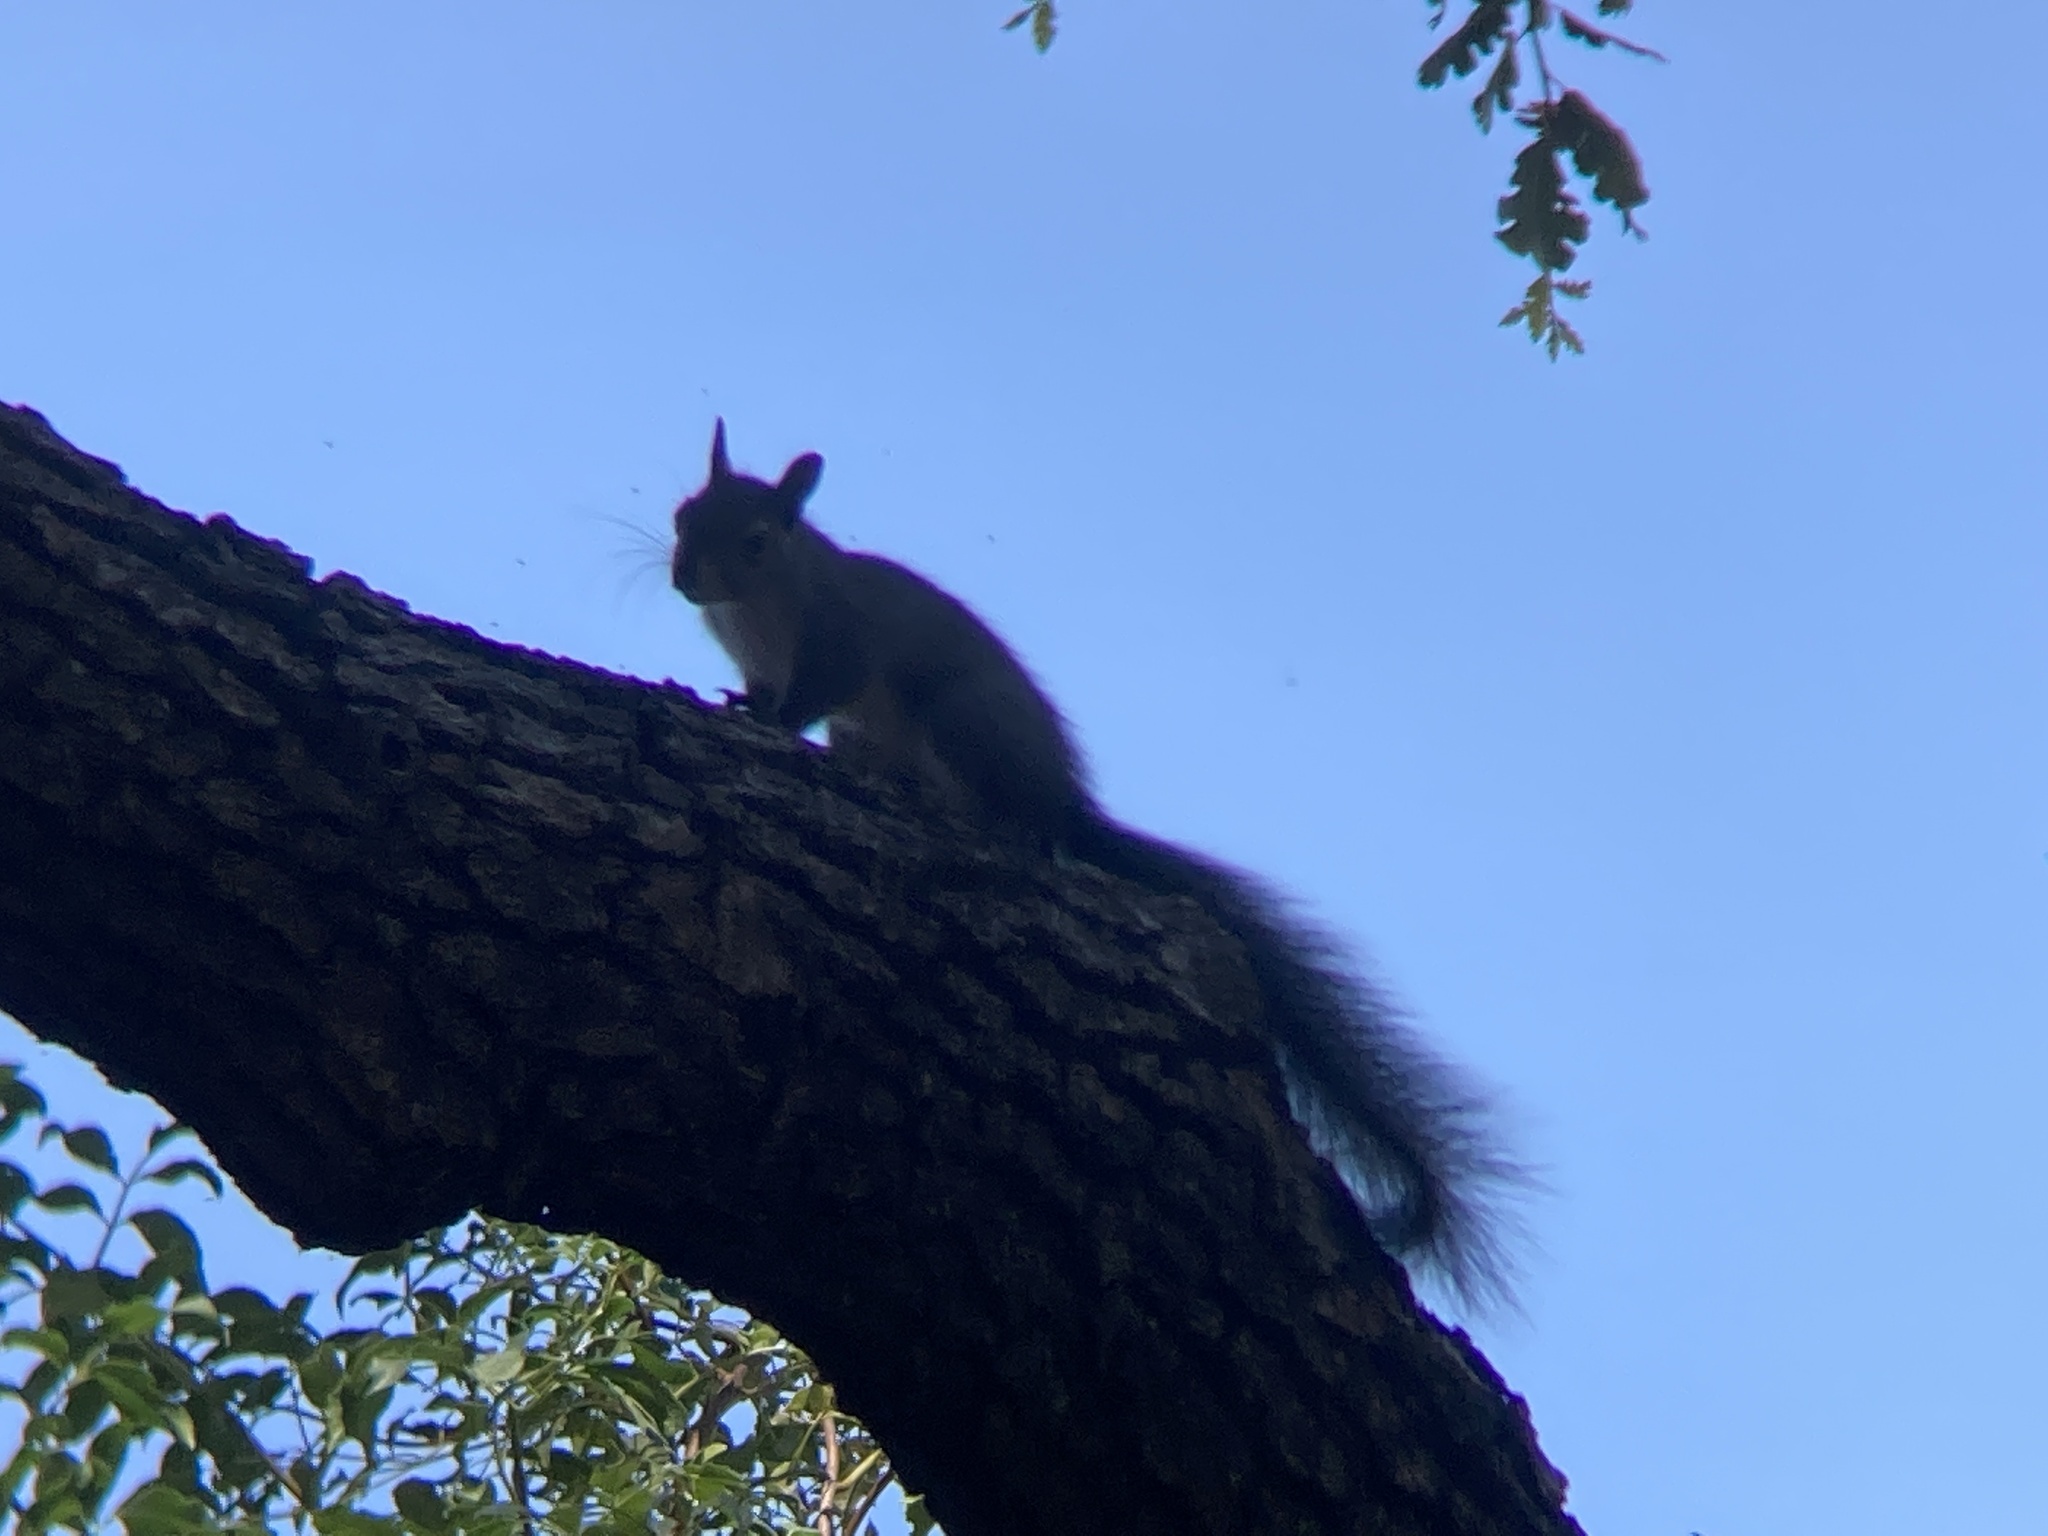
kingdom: Animalia
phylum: Chordata
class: Mammalia
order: Rodentia
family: Sciuridae
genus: Sciurus
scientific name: Sciurus griseus
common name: Western gray squirrel
